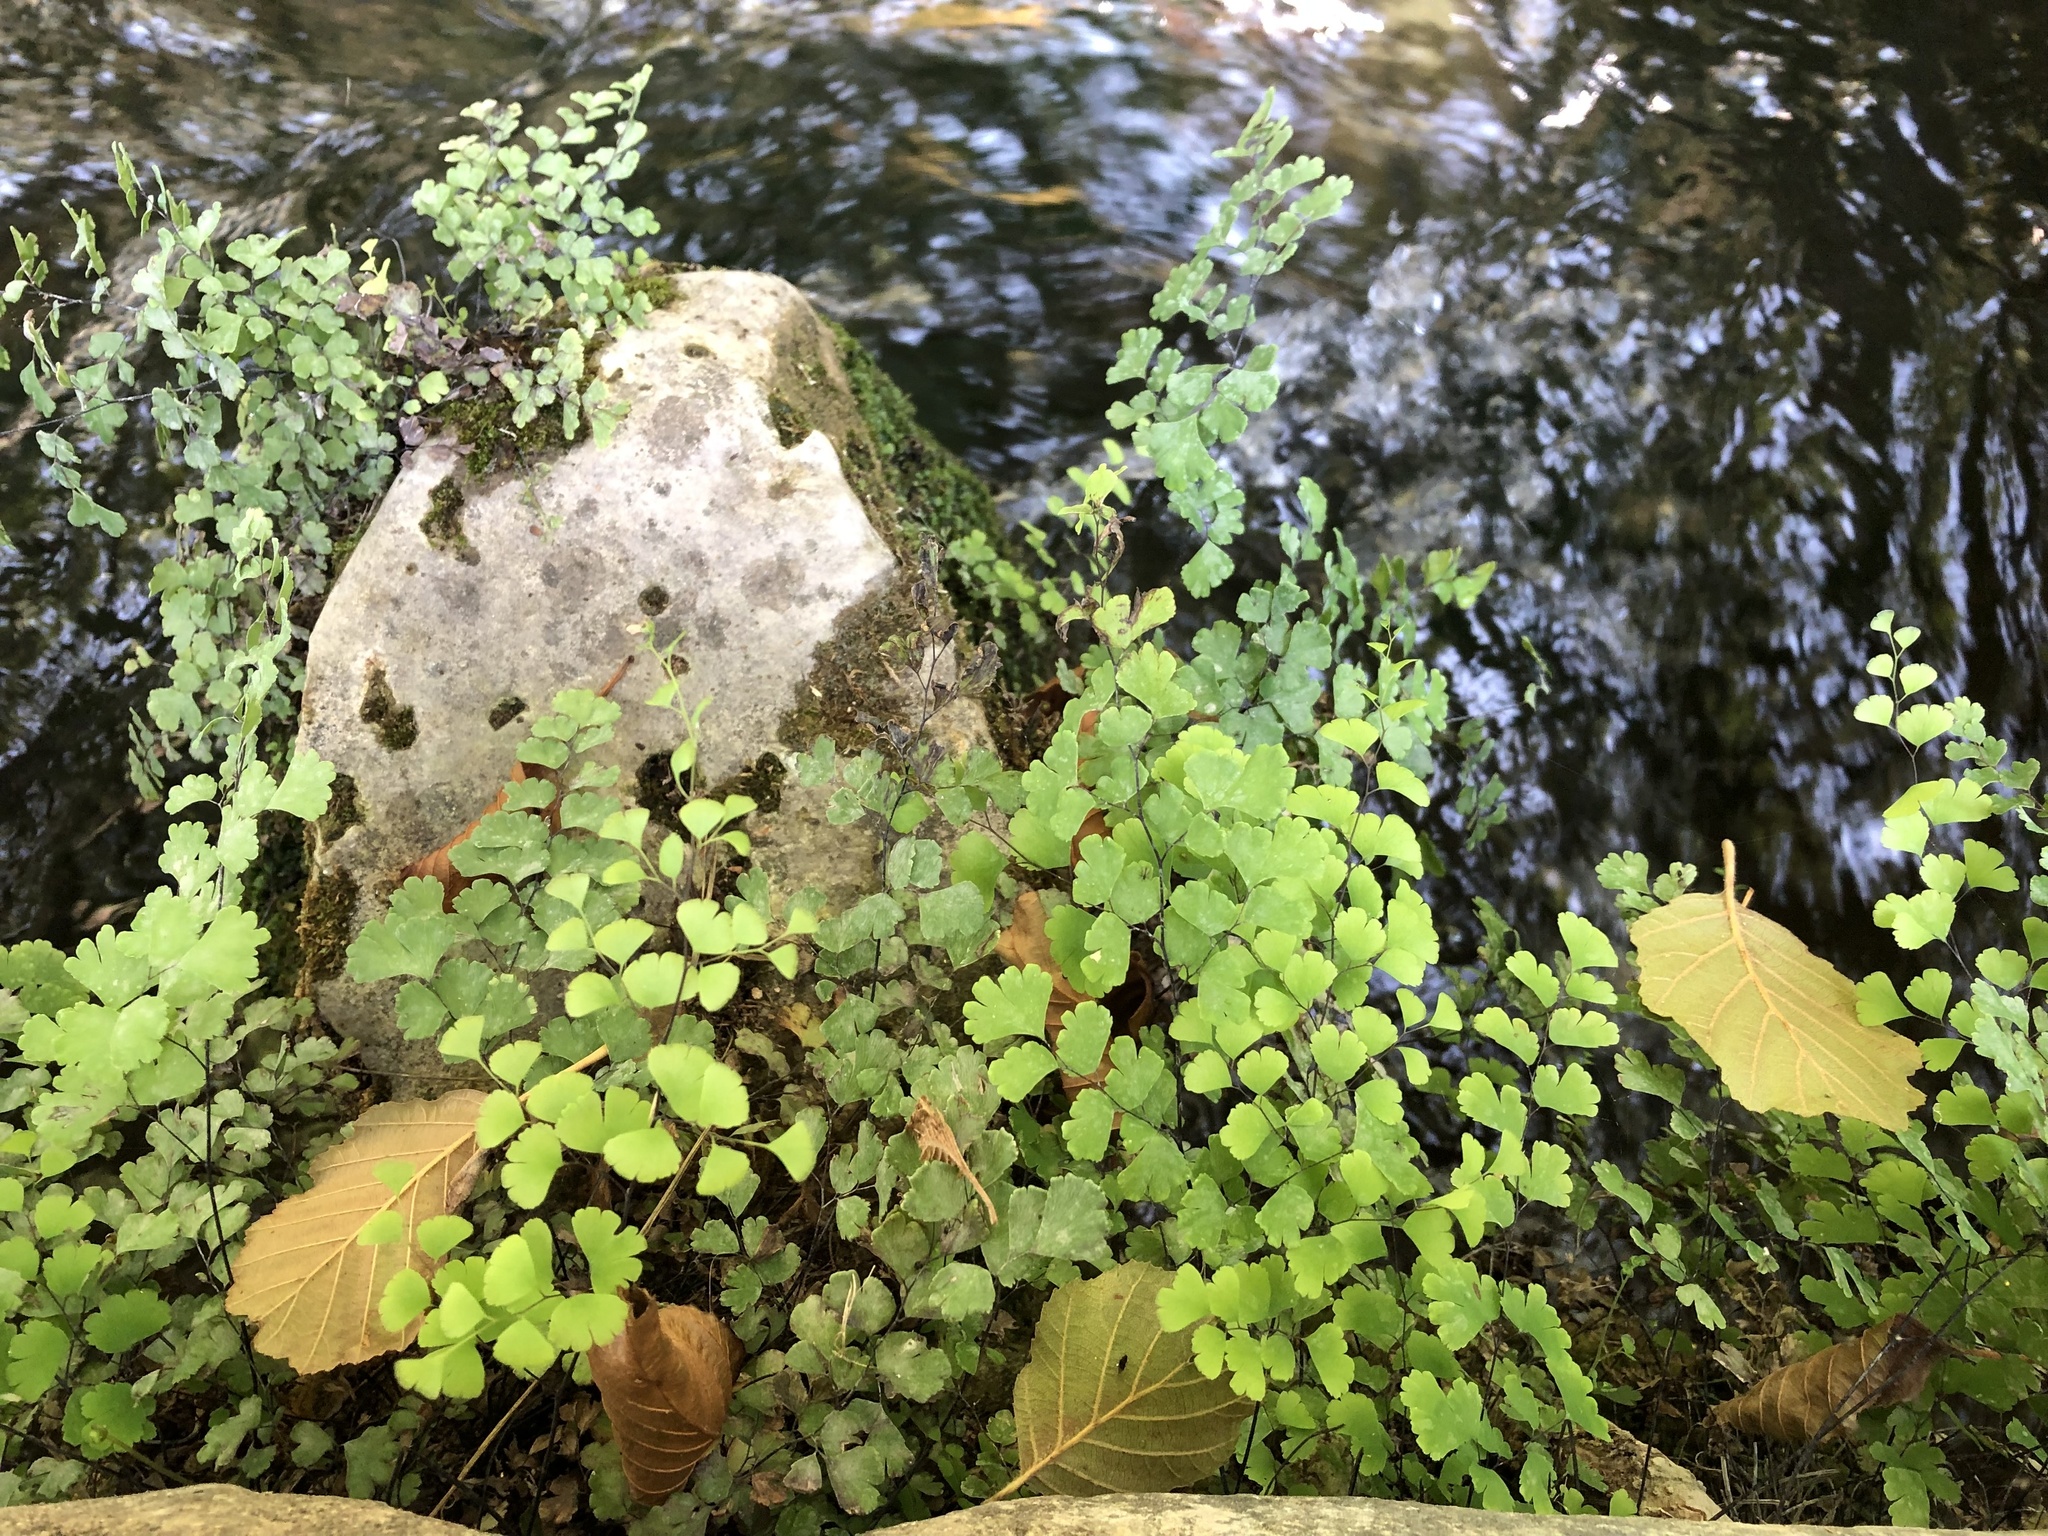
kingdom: Plantae
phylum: Tracheophyta
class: Polypodiopsida
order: Polypodiales
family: Pteridaceae
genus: Adiantum
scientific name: Adiantum capillus-veneris
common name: Maidenhair fern
